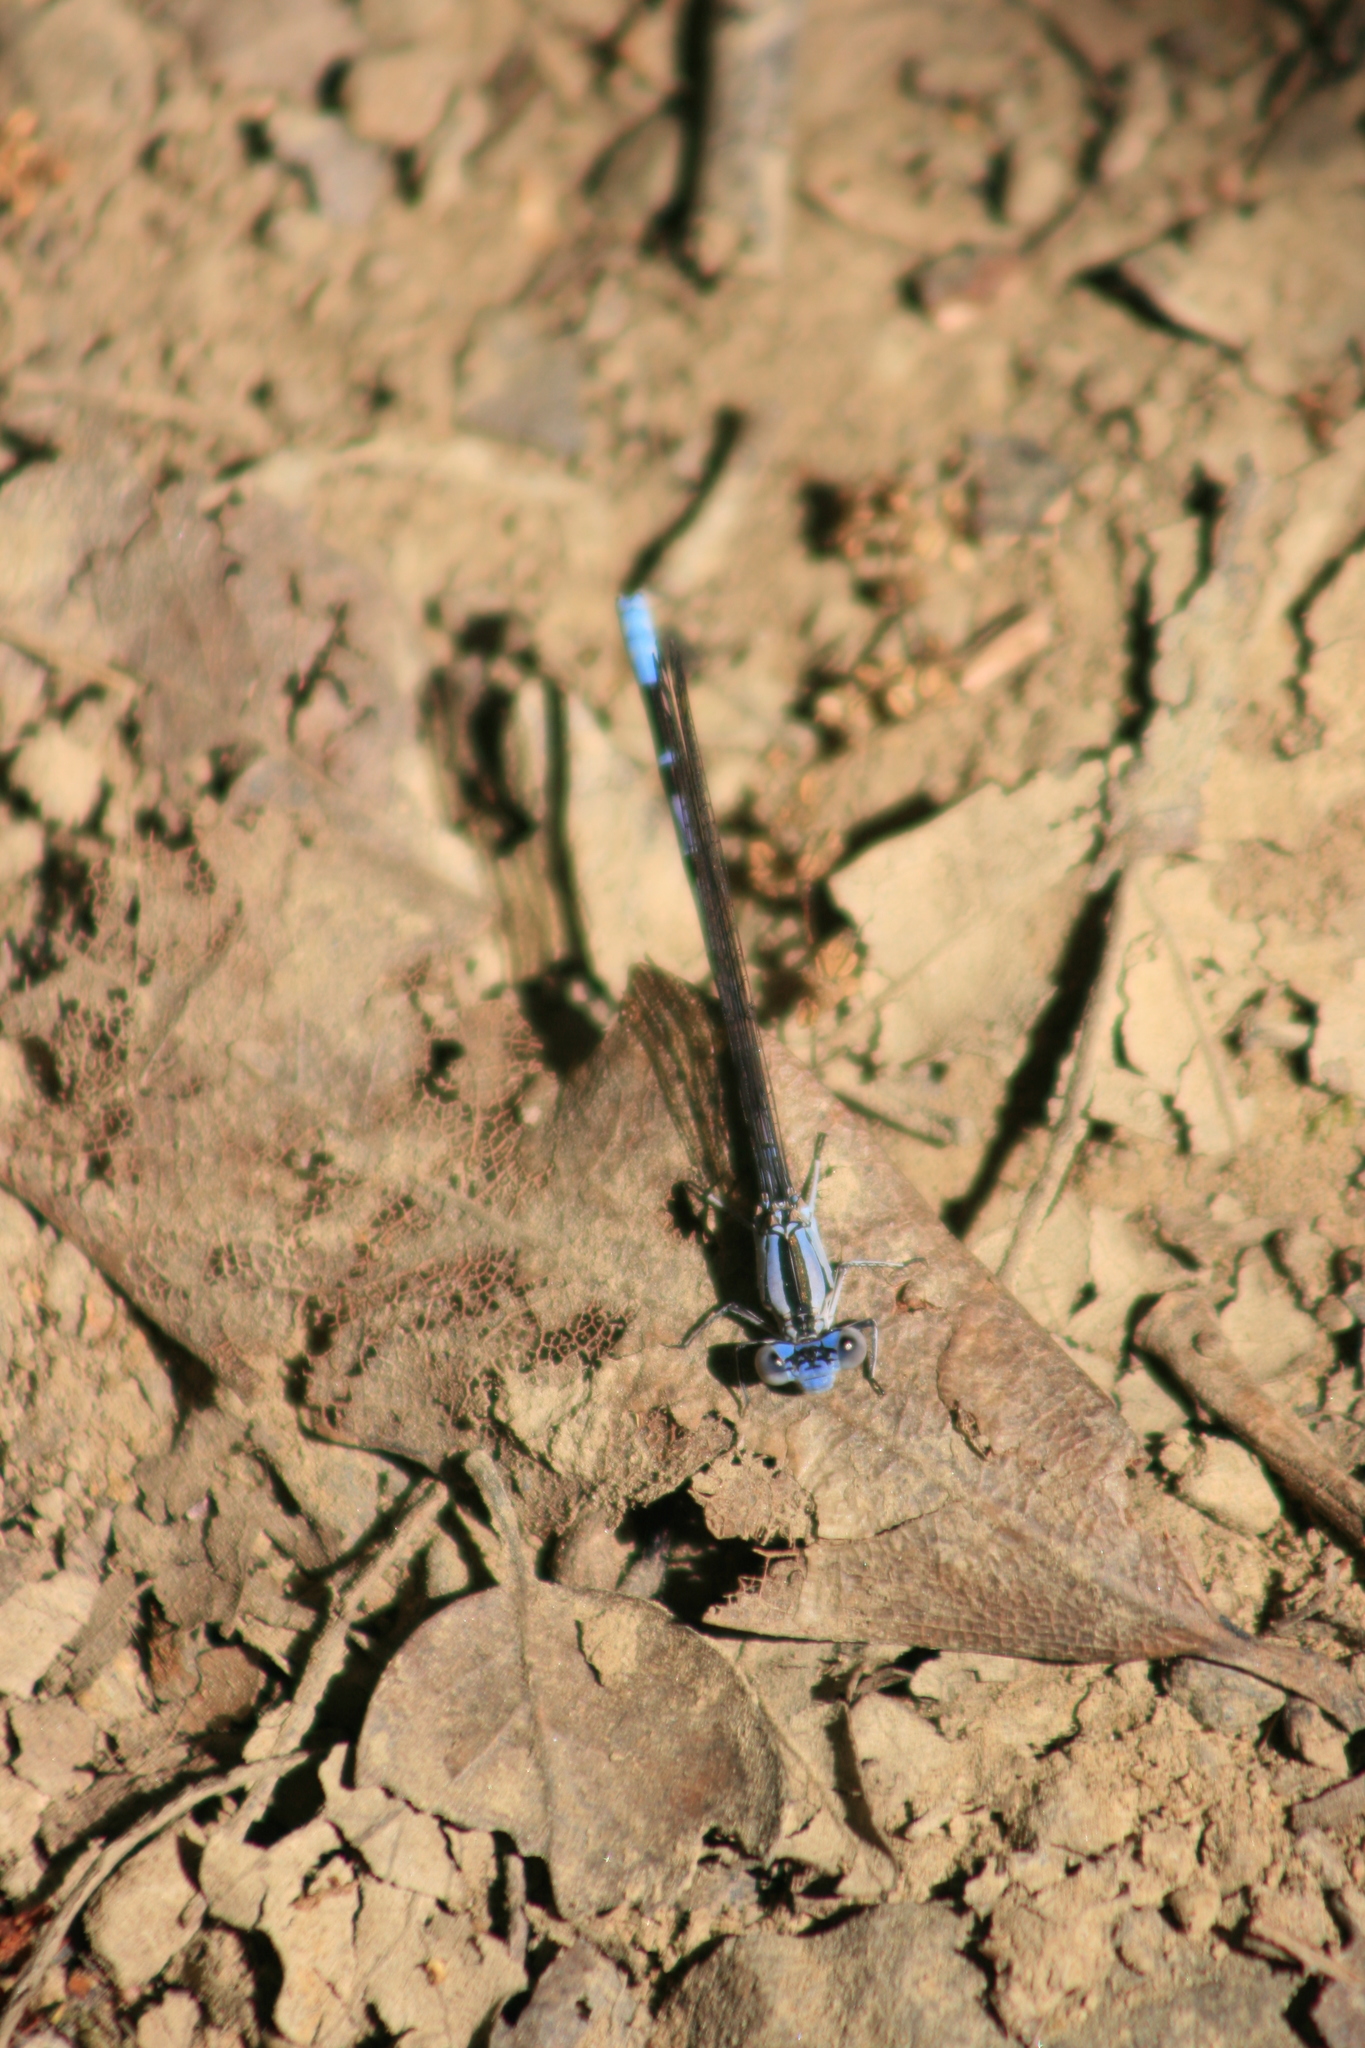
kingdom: Animalia
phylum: Arthropoda
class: Insecta
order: Odonata
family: Coenagrionidae
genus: Argia
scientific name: Argia vivida
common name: Vivid dancer
